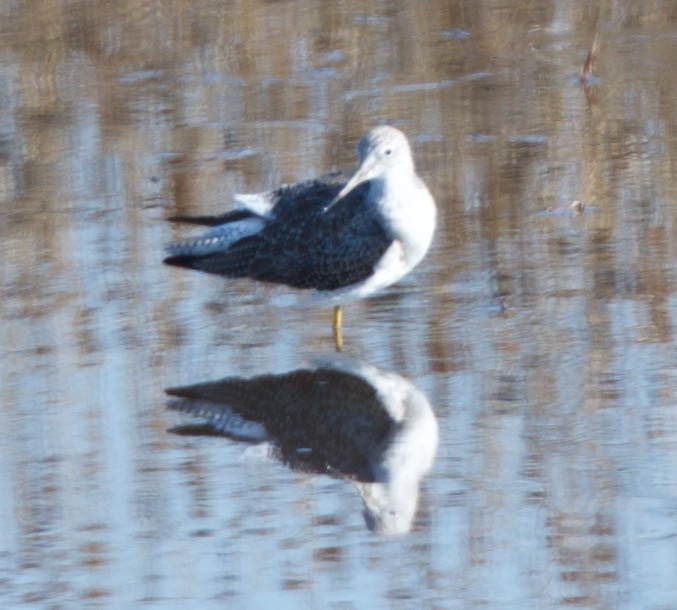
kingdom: Animalia
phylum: Chordata
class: Aves
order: Charadriiformes
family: Scolopacidae
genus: Tringa
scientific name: Tringa melanoleuca
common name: Greater yellowlegs
